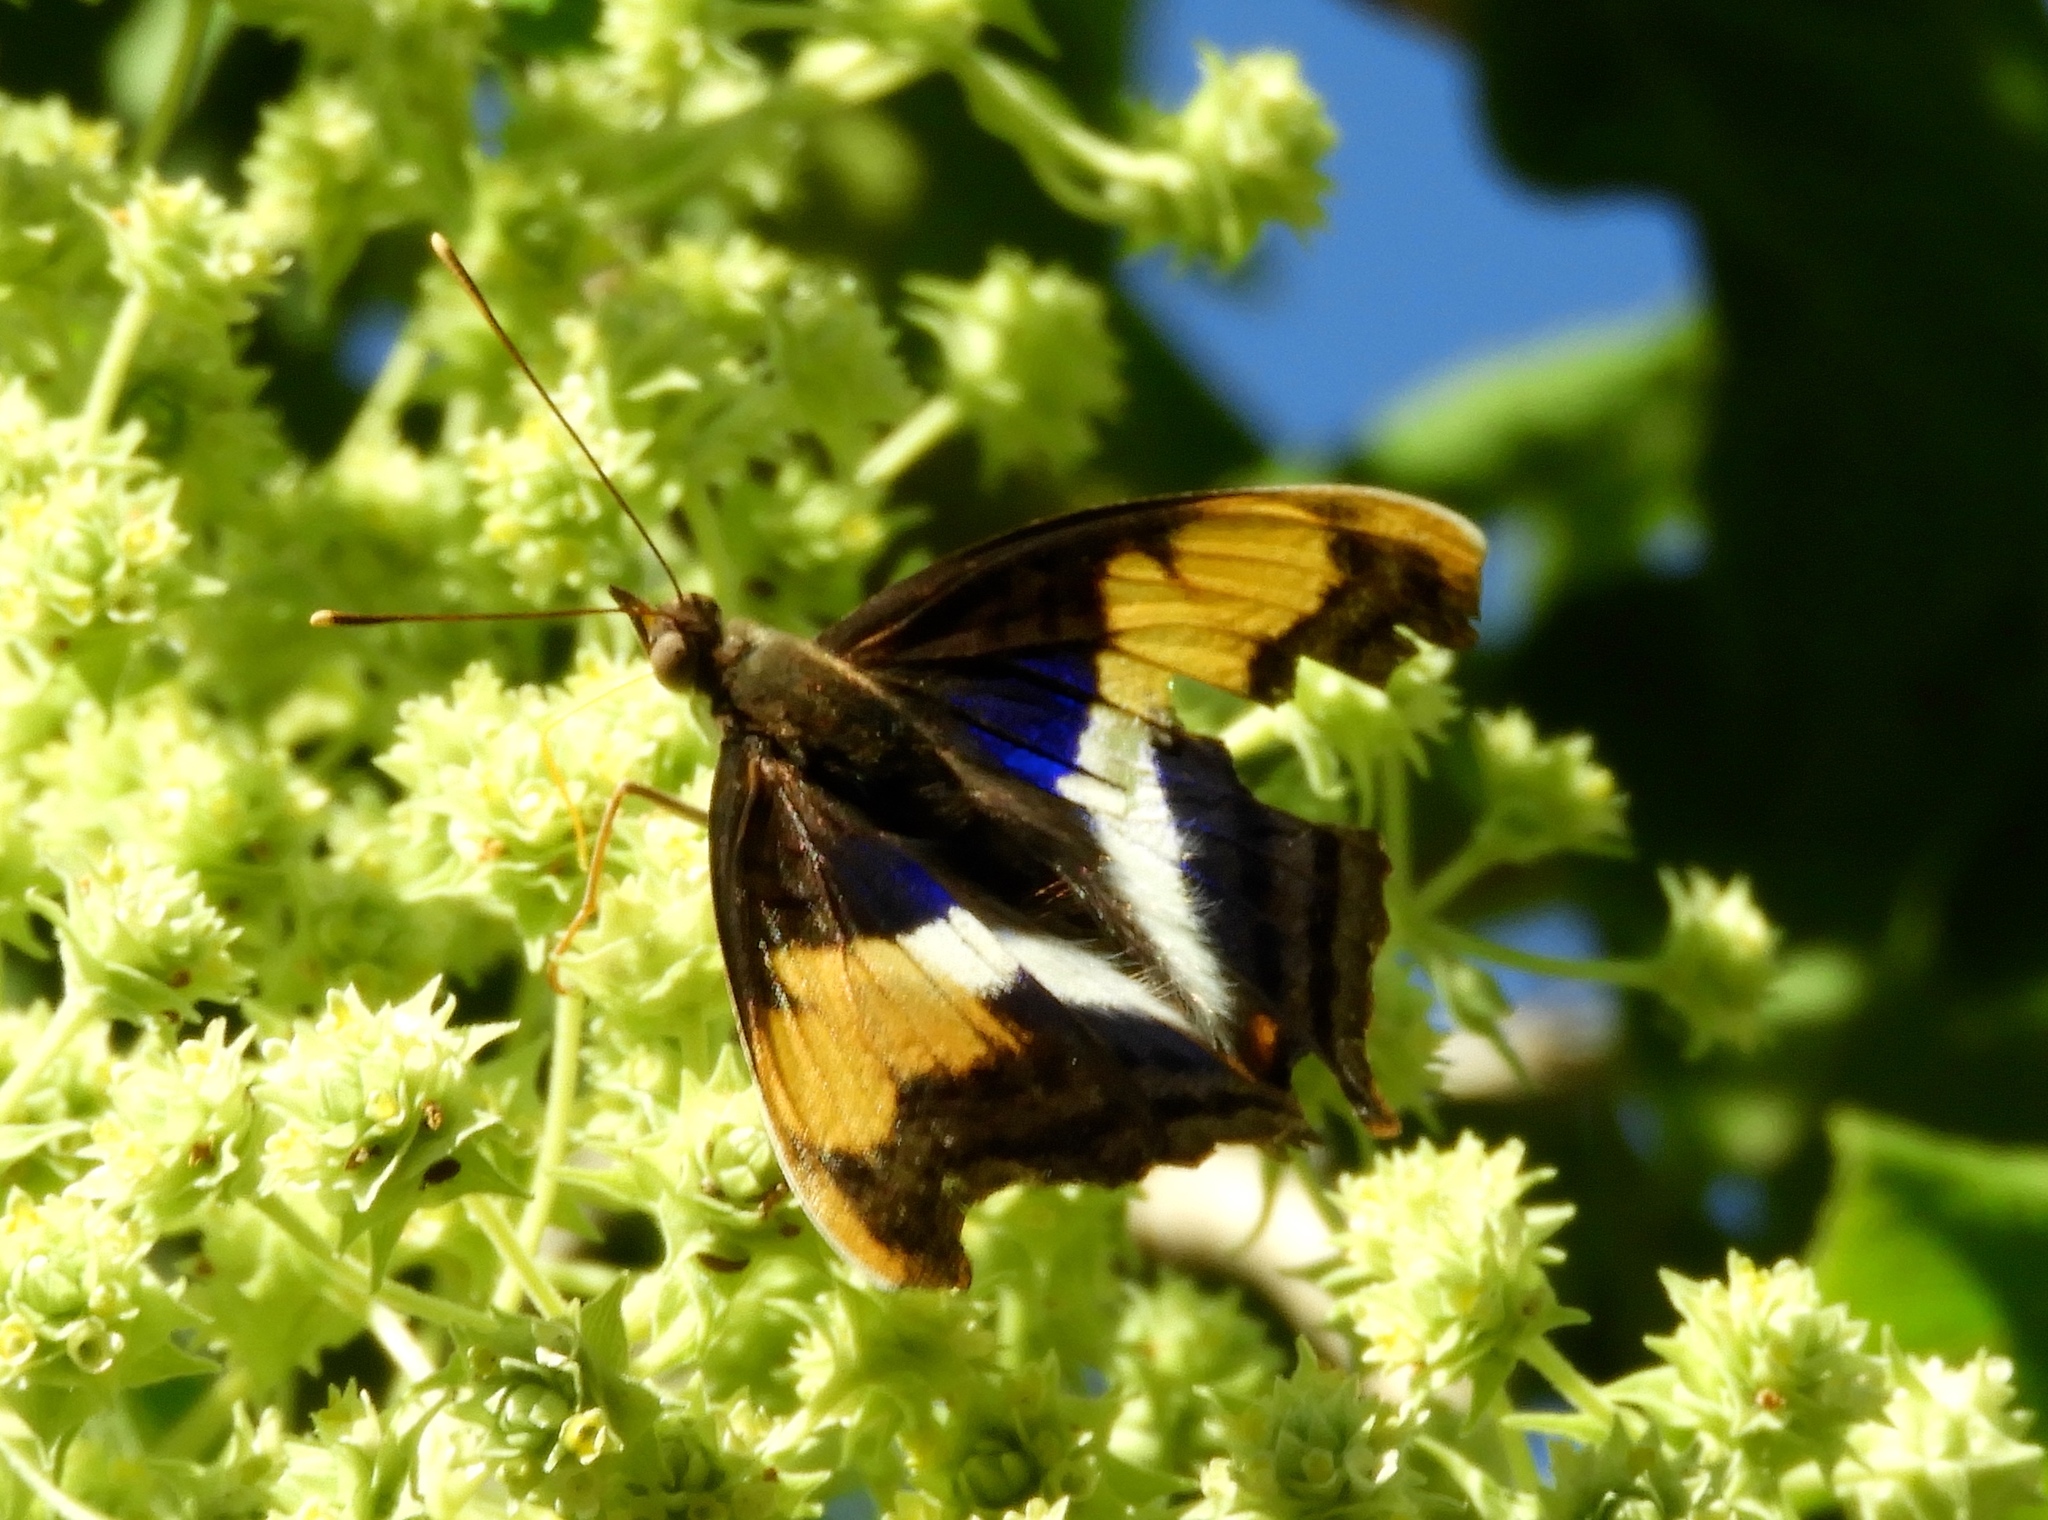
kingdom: Animalia
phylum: Arthropoda
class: Insecta
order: Lepidoptera
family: Nymphalidae
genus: Doxocopa
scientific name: Doxocopa laure
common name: Silver emperor
